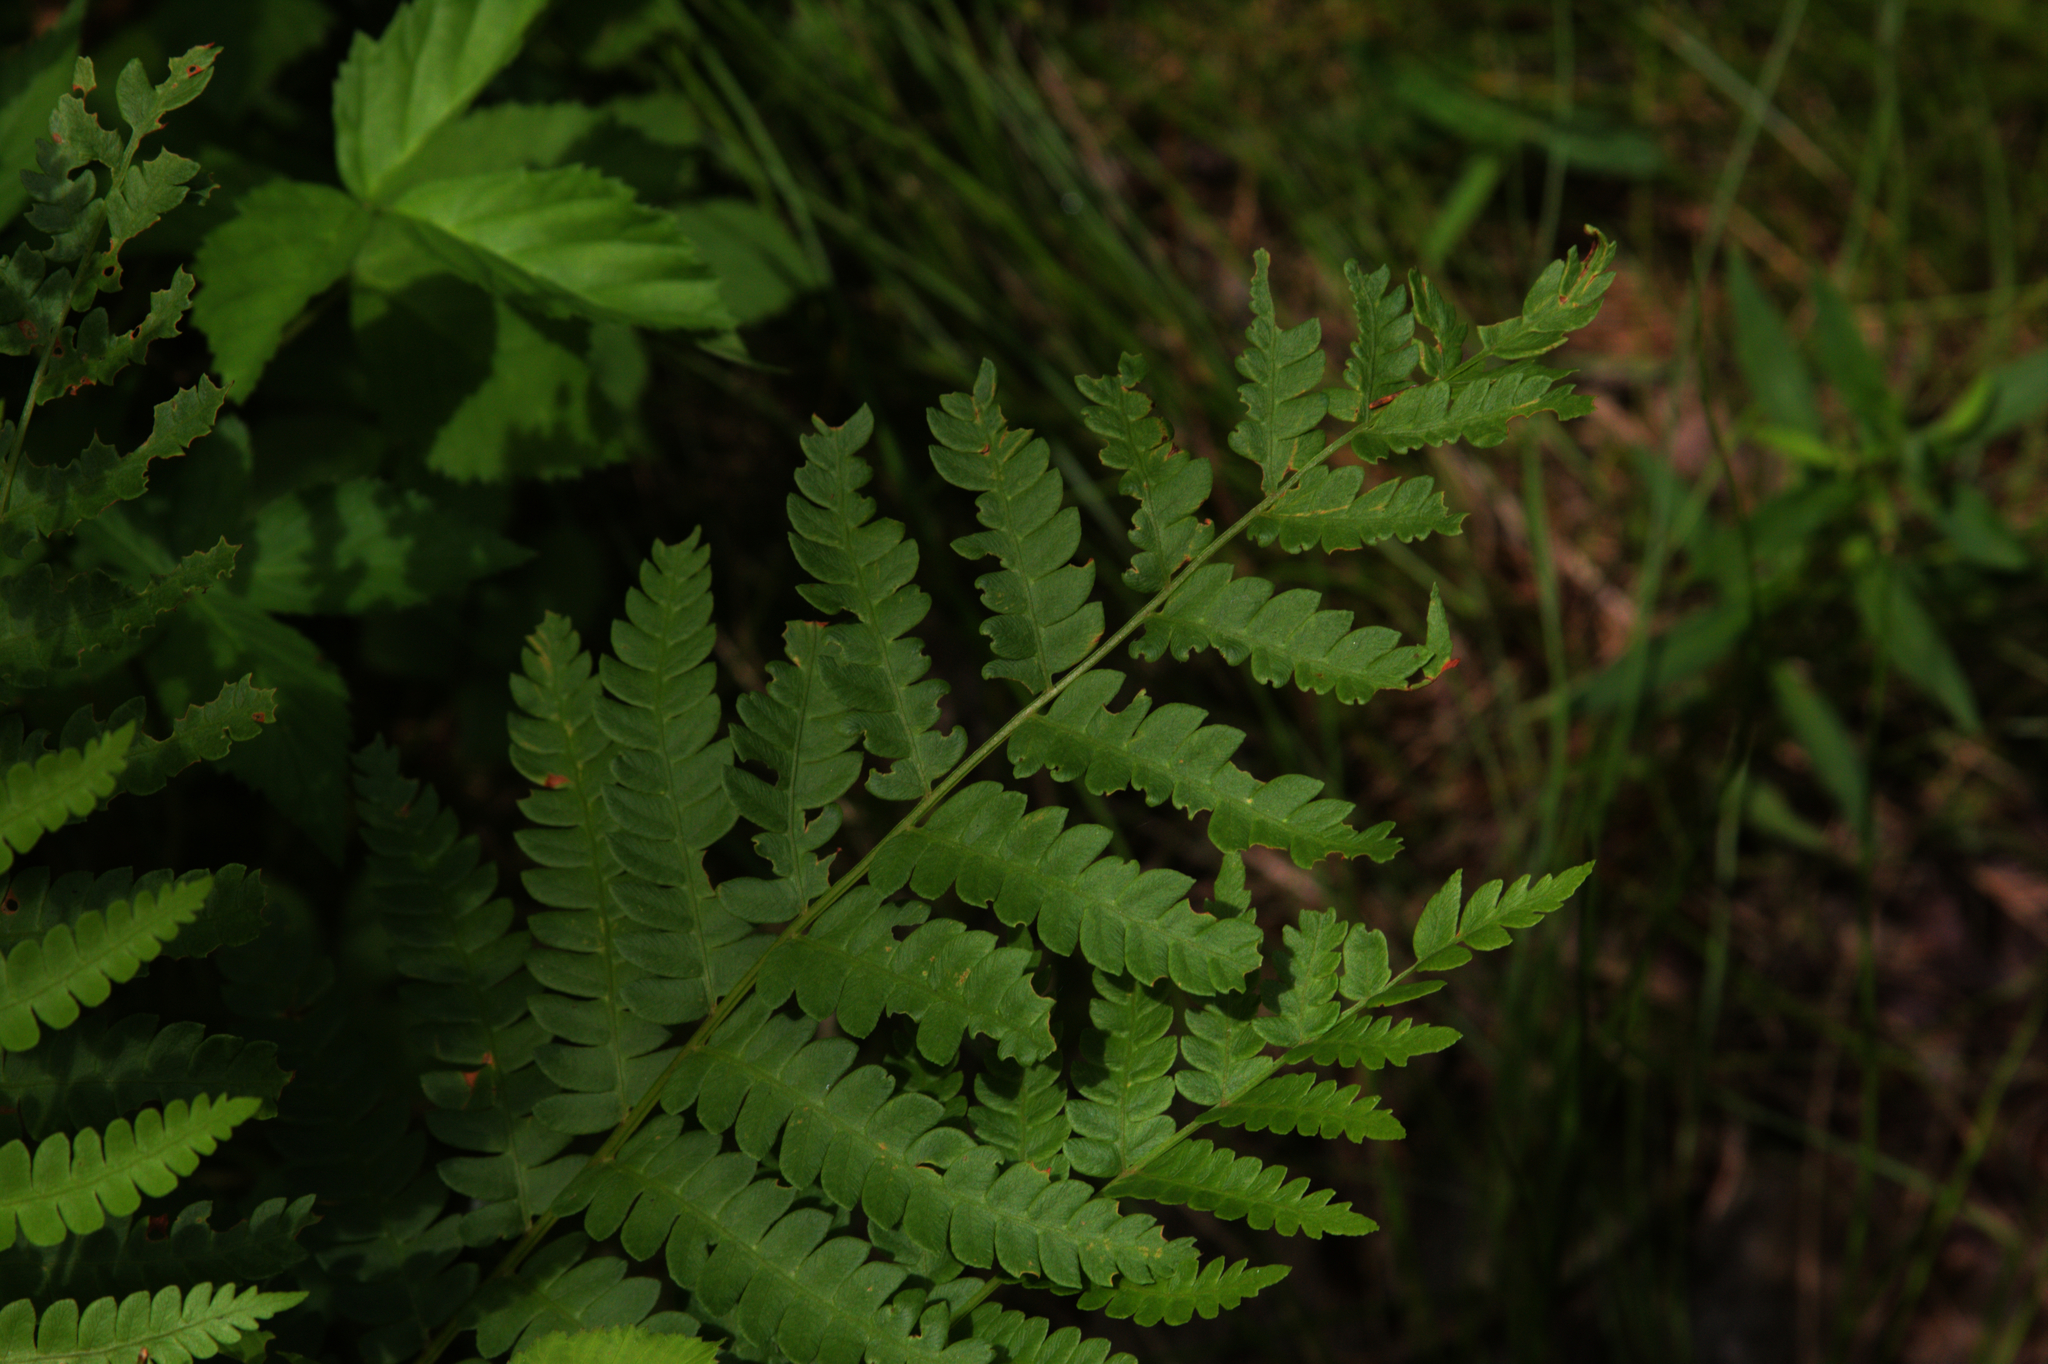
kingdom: Plantae
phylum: Tracheophyta
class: Polypodiopsida
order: Osmundales
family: Osmundaceae
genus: Osmundastrum
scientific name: Osmundastrum cinnamomeum
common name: Cinnamon fern
